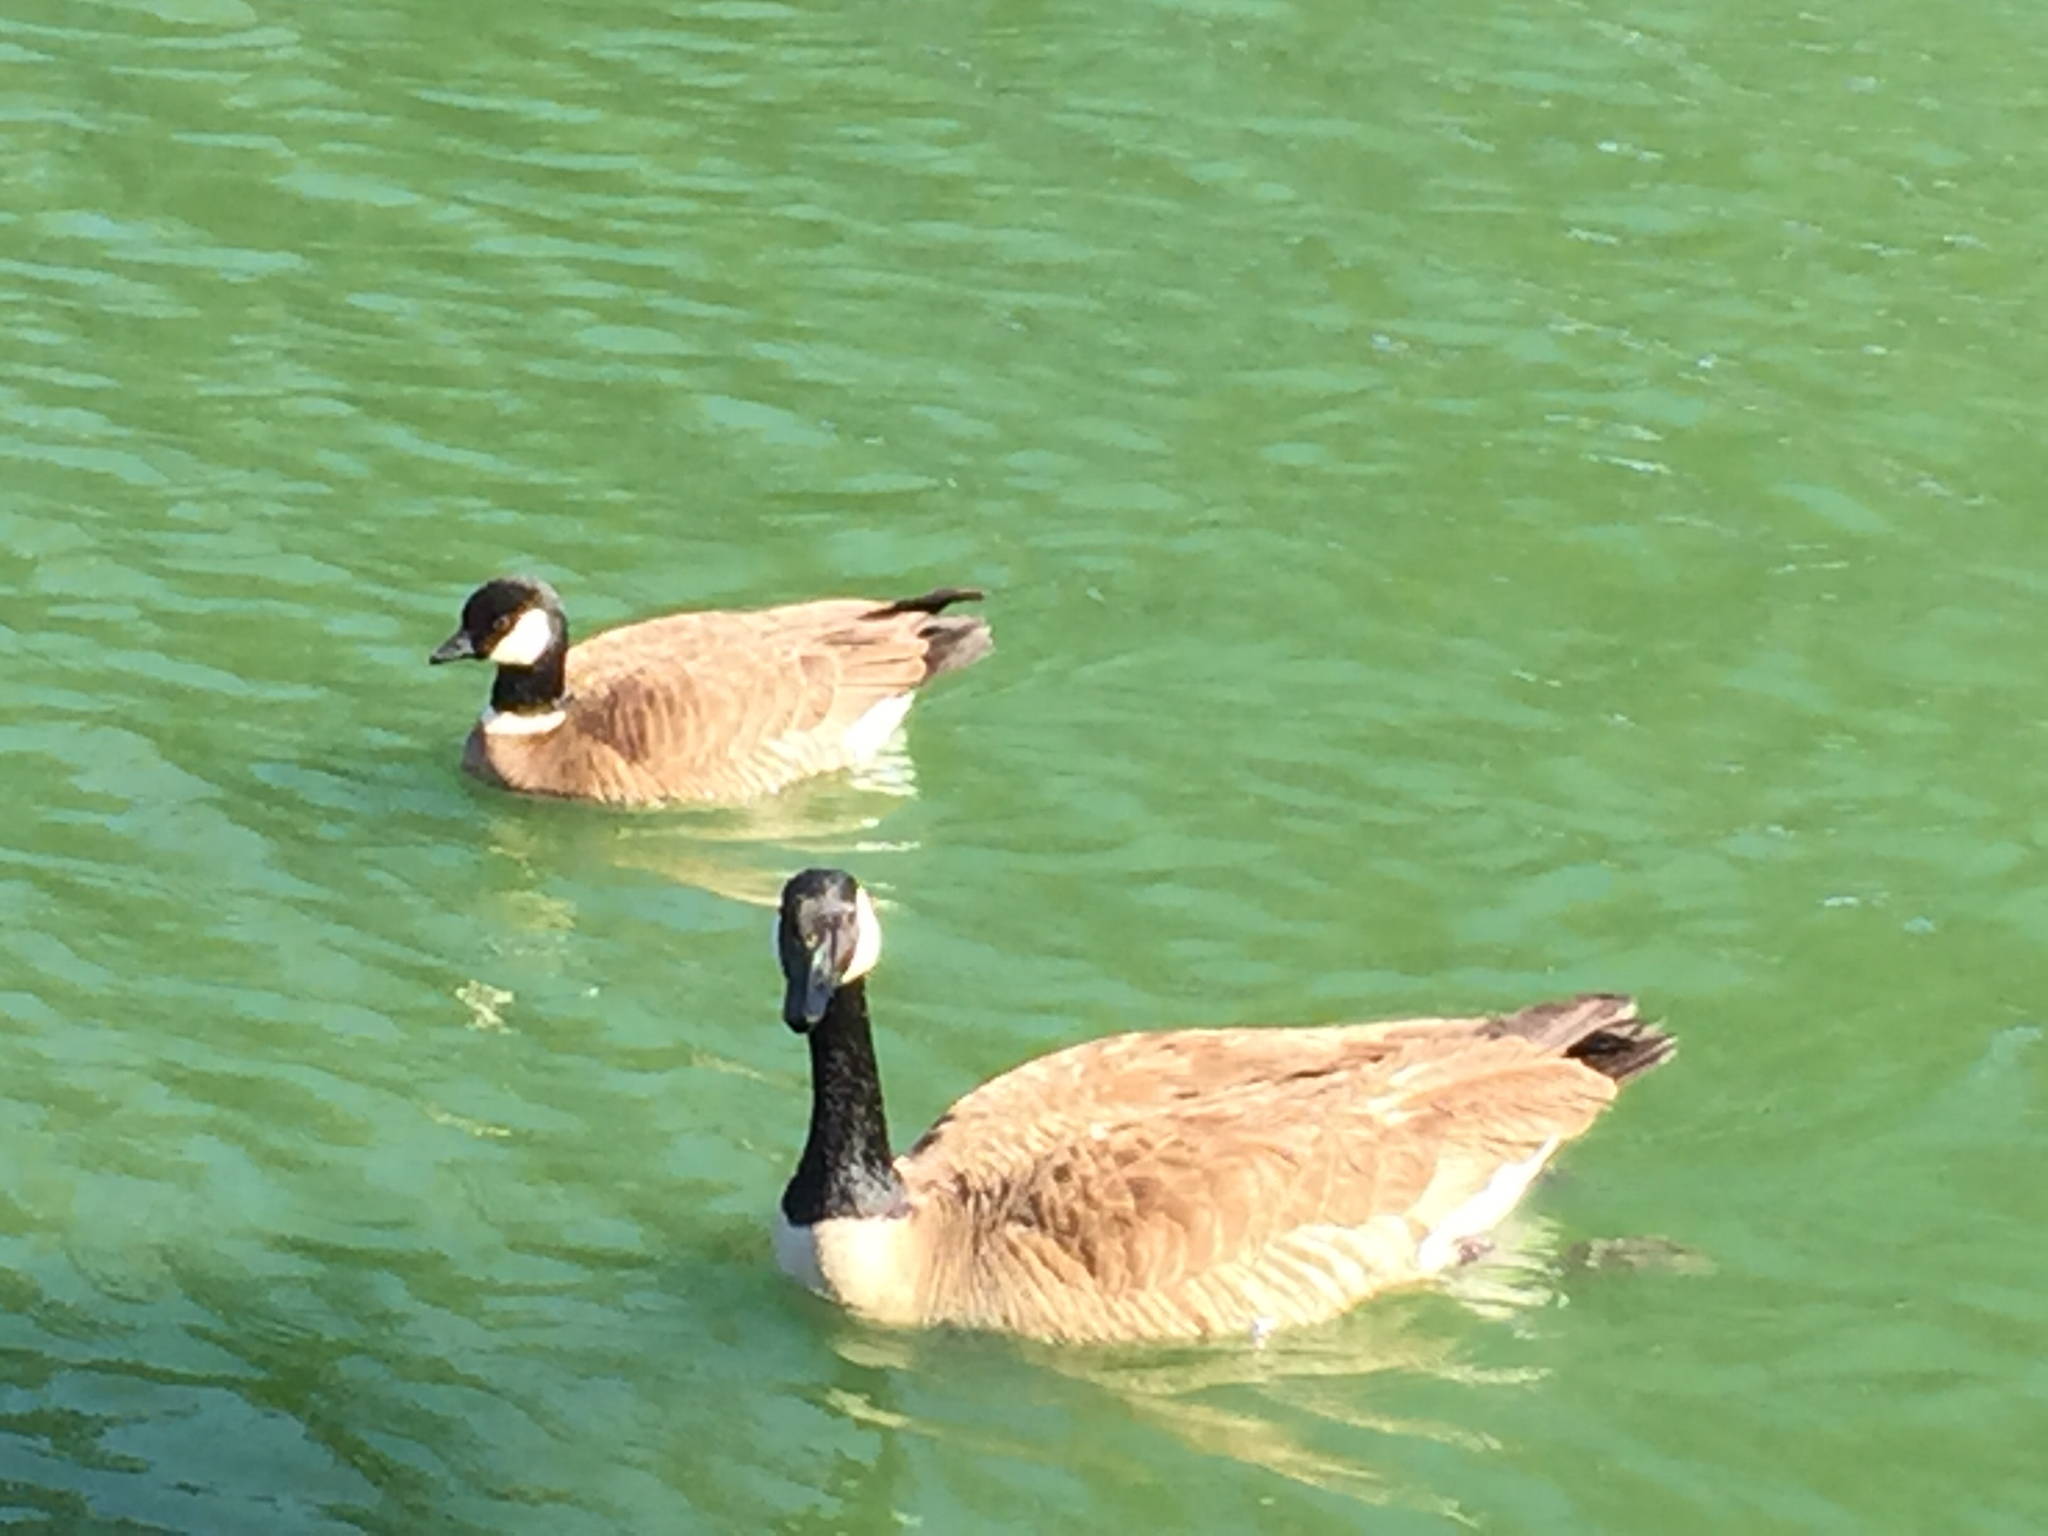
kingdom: Animalia
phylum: Chordata
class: Aves
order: Anseriformes
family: Anatidae
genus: Branta
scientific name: Branta hutchinsii
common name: Cackling goose
